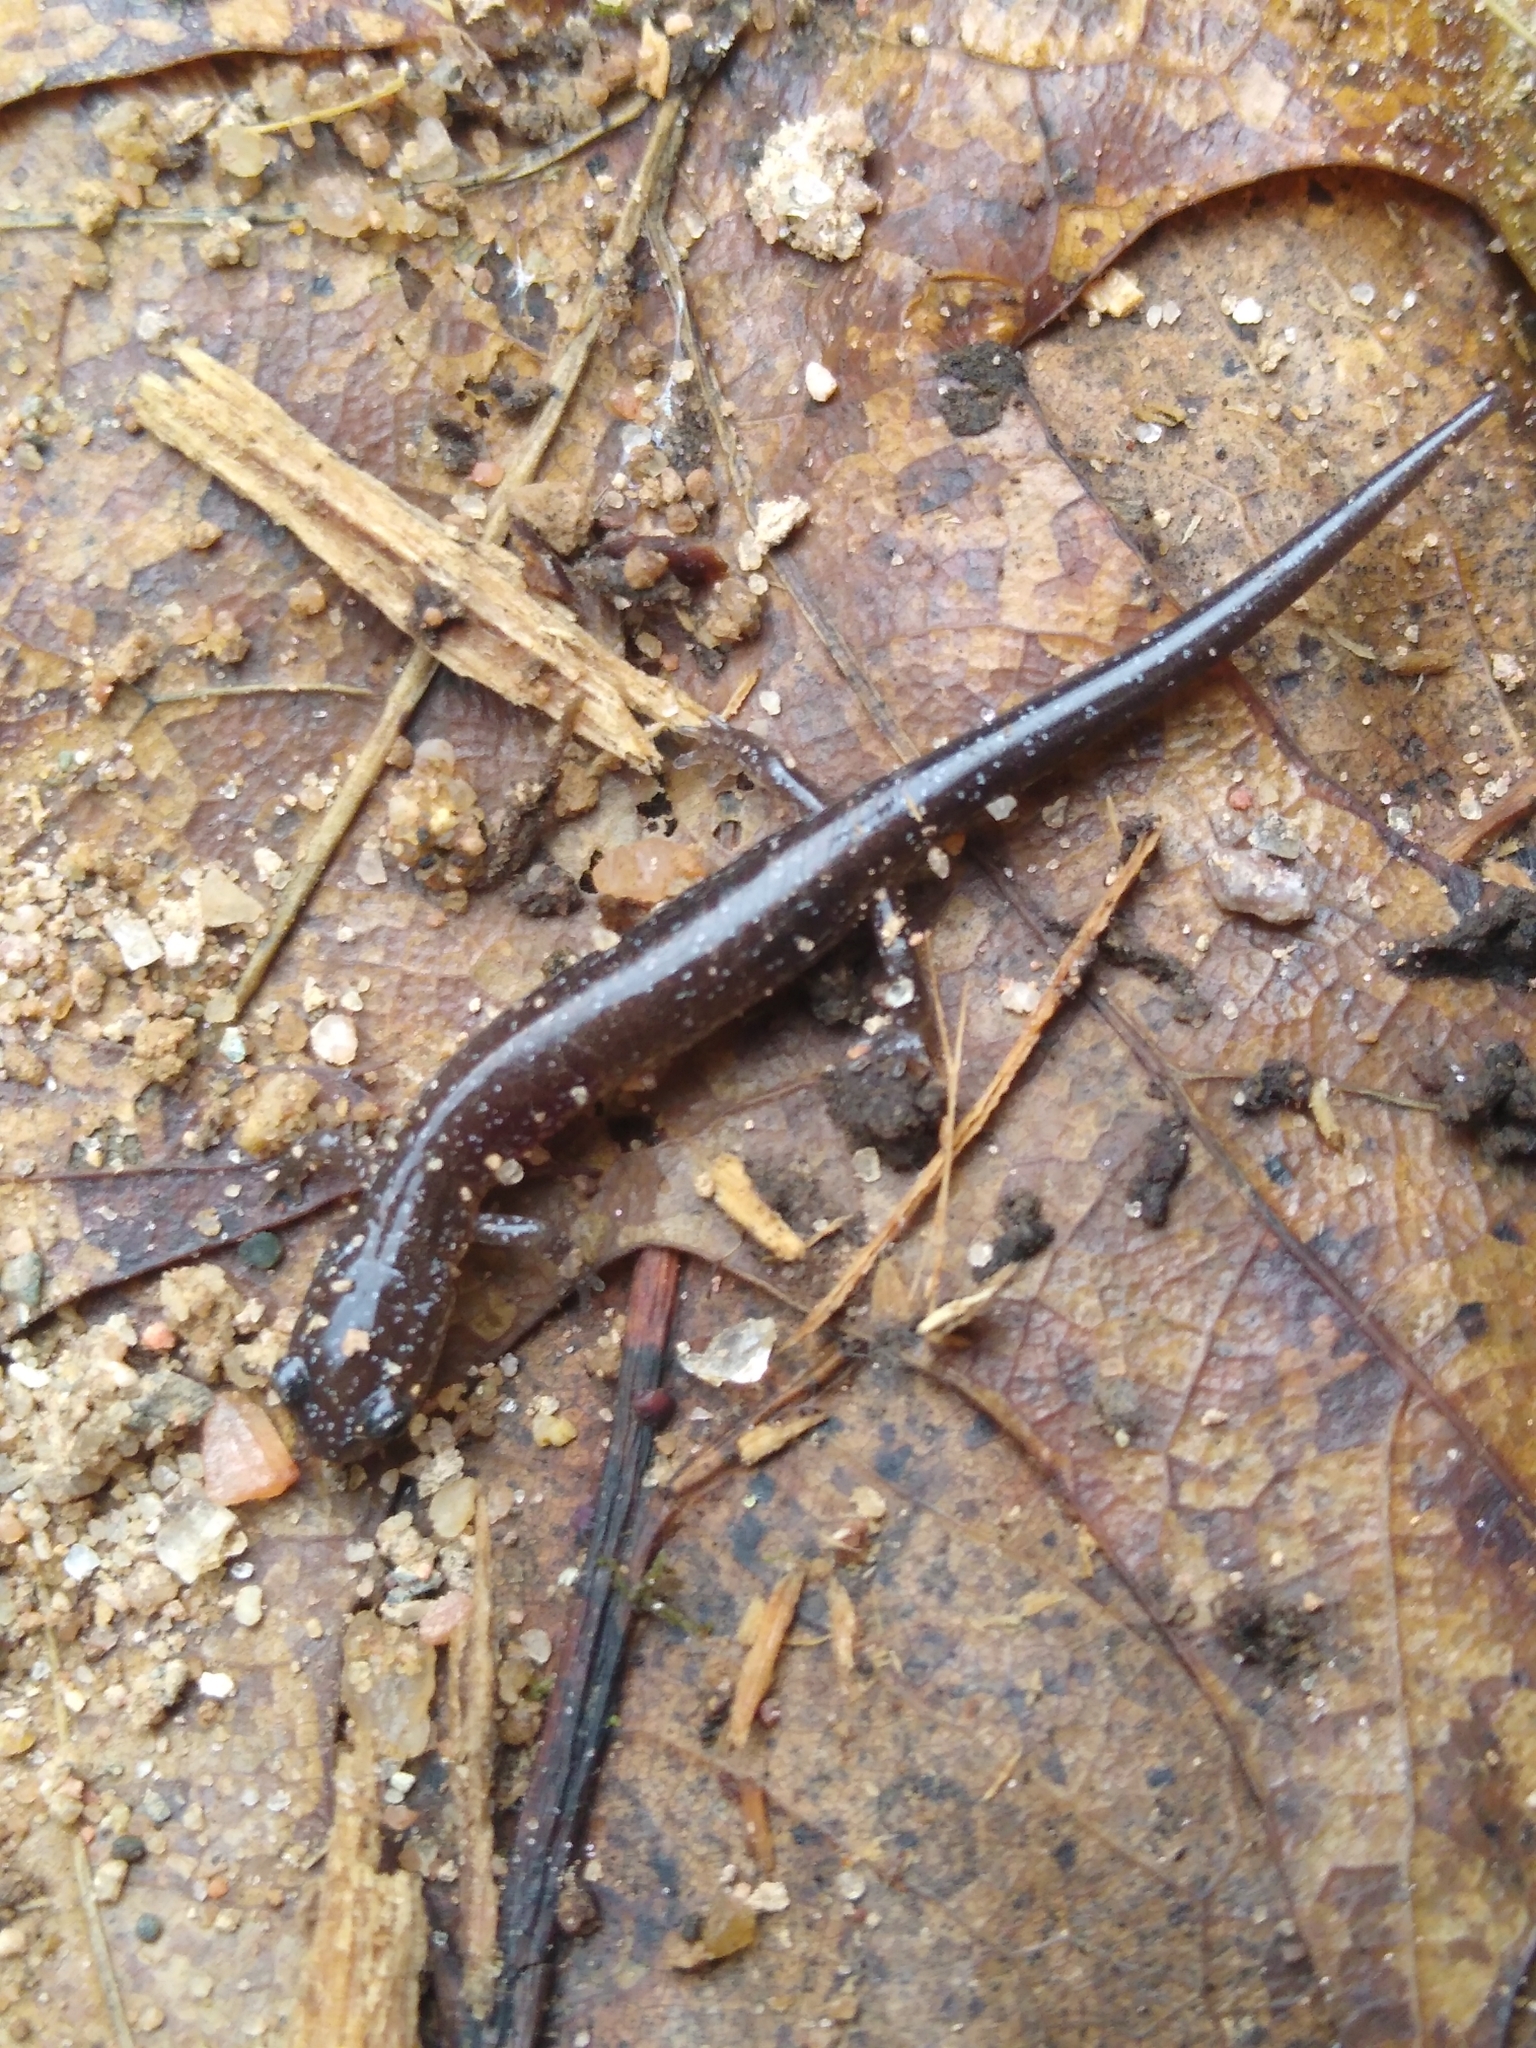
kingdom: Animalia
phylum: Chordata
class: Amphibia
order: Caudata
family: Plethodontidae
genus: Plethodon
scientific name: Plethodon cinereus
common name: Redback salamander
